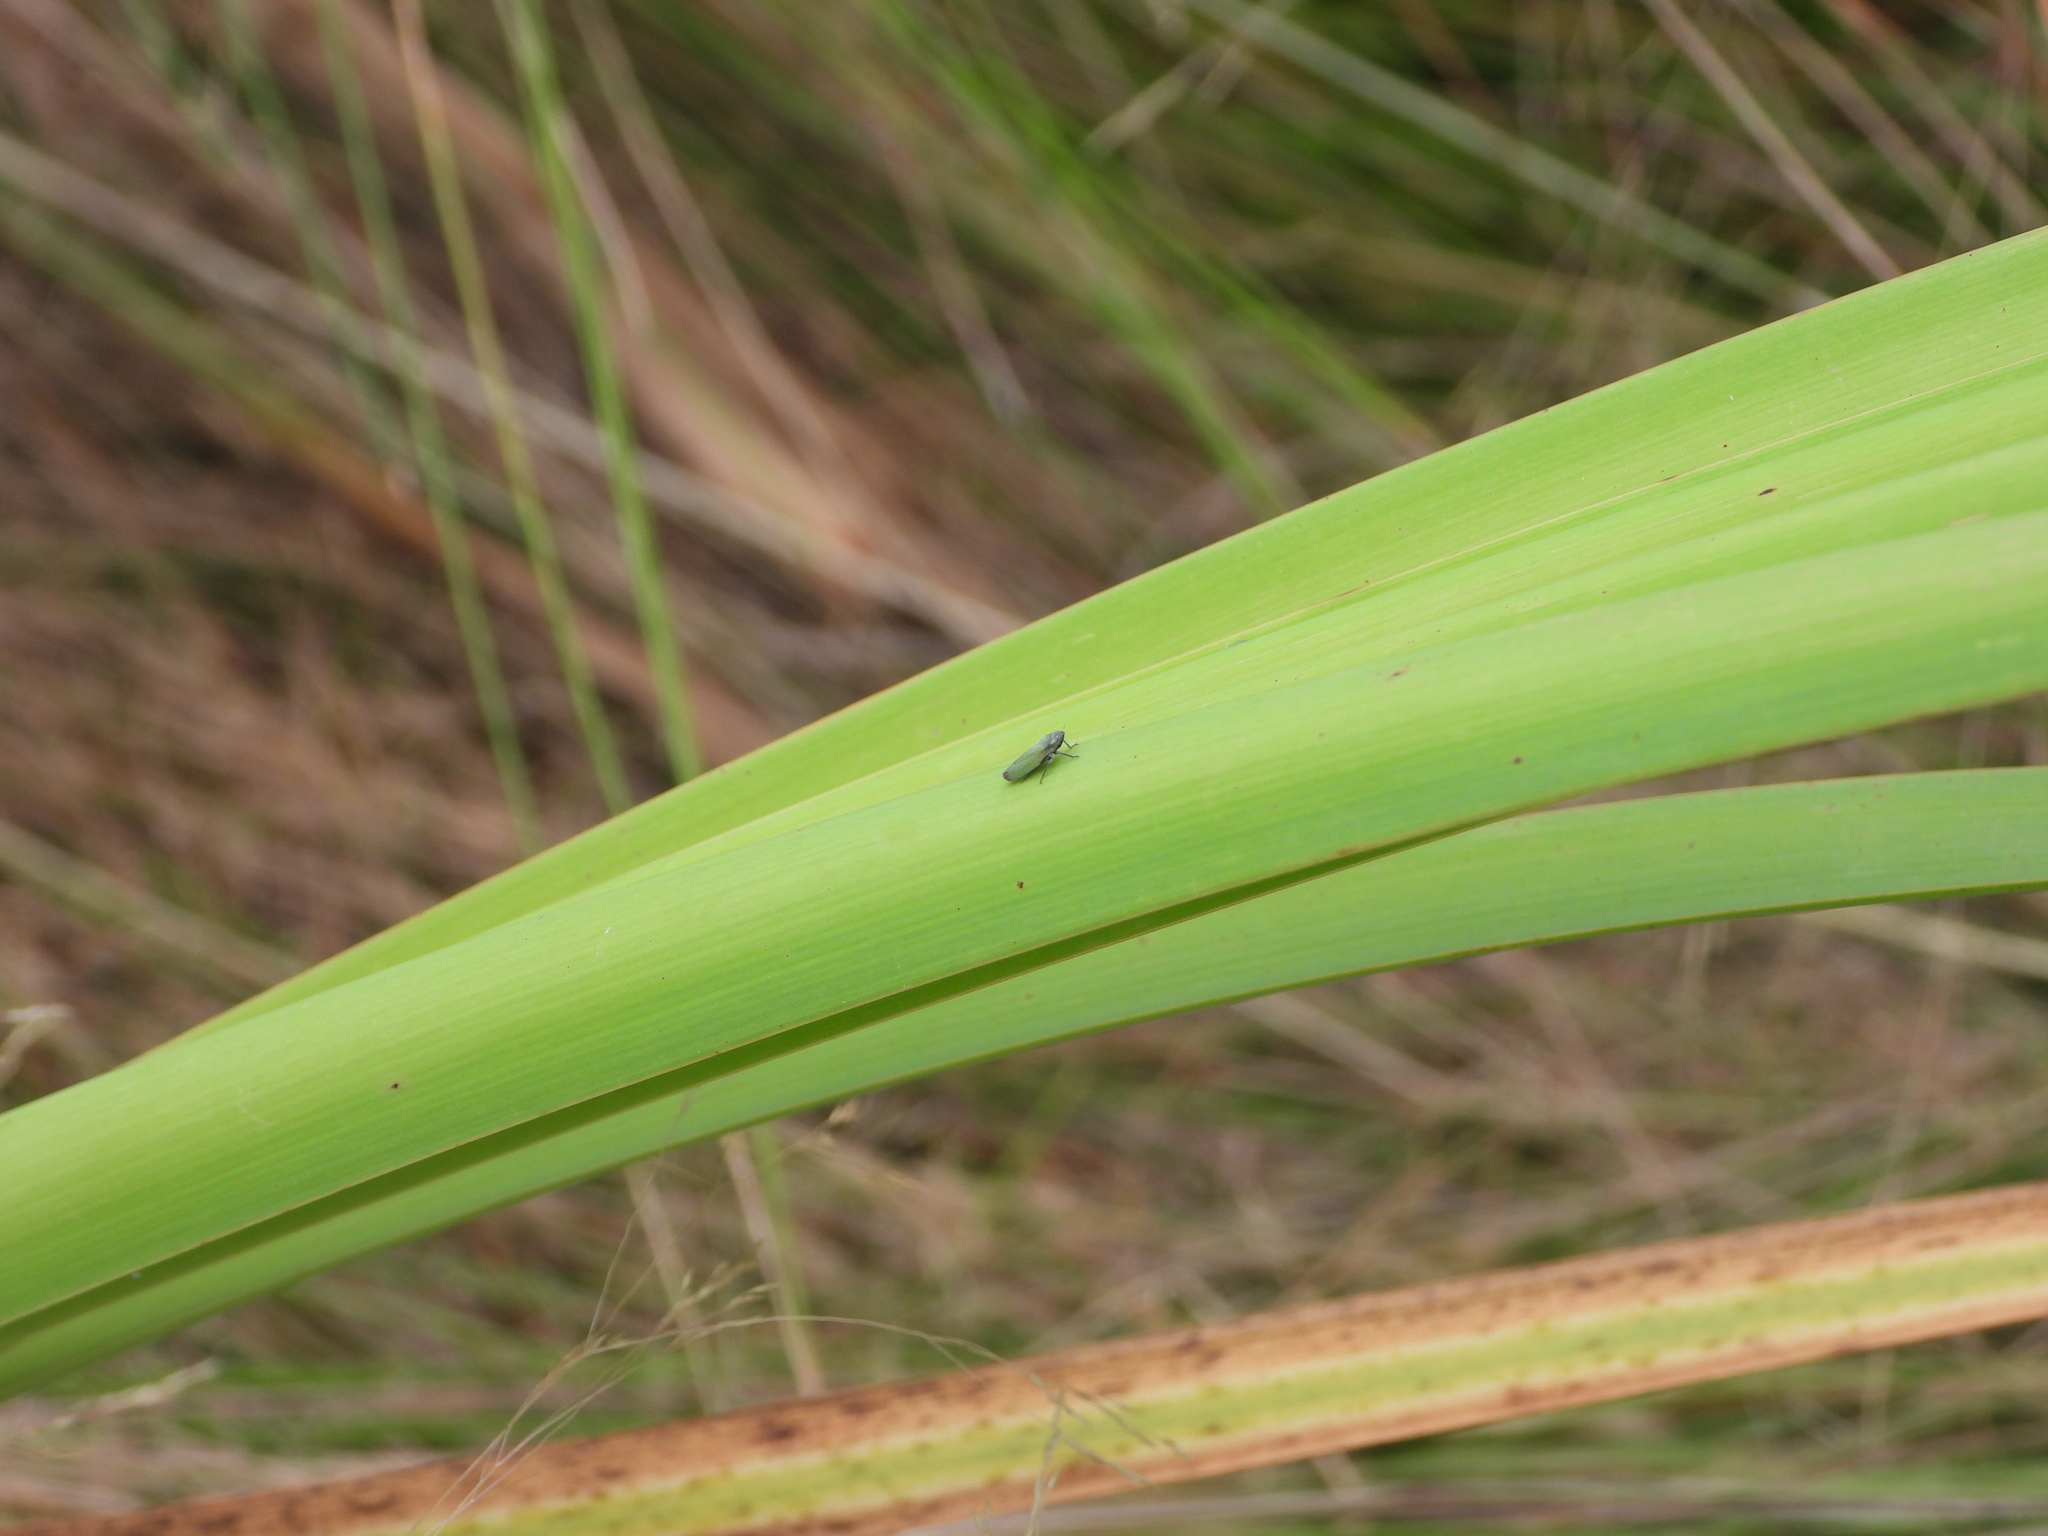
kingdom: Animalia
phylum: Arthropoda
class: Insecta
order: Hemiptera
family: Cicadellidae
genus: Helochara
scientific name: Helochara communis
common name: Bog leafhopper
